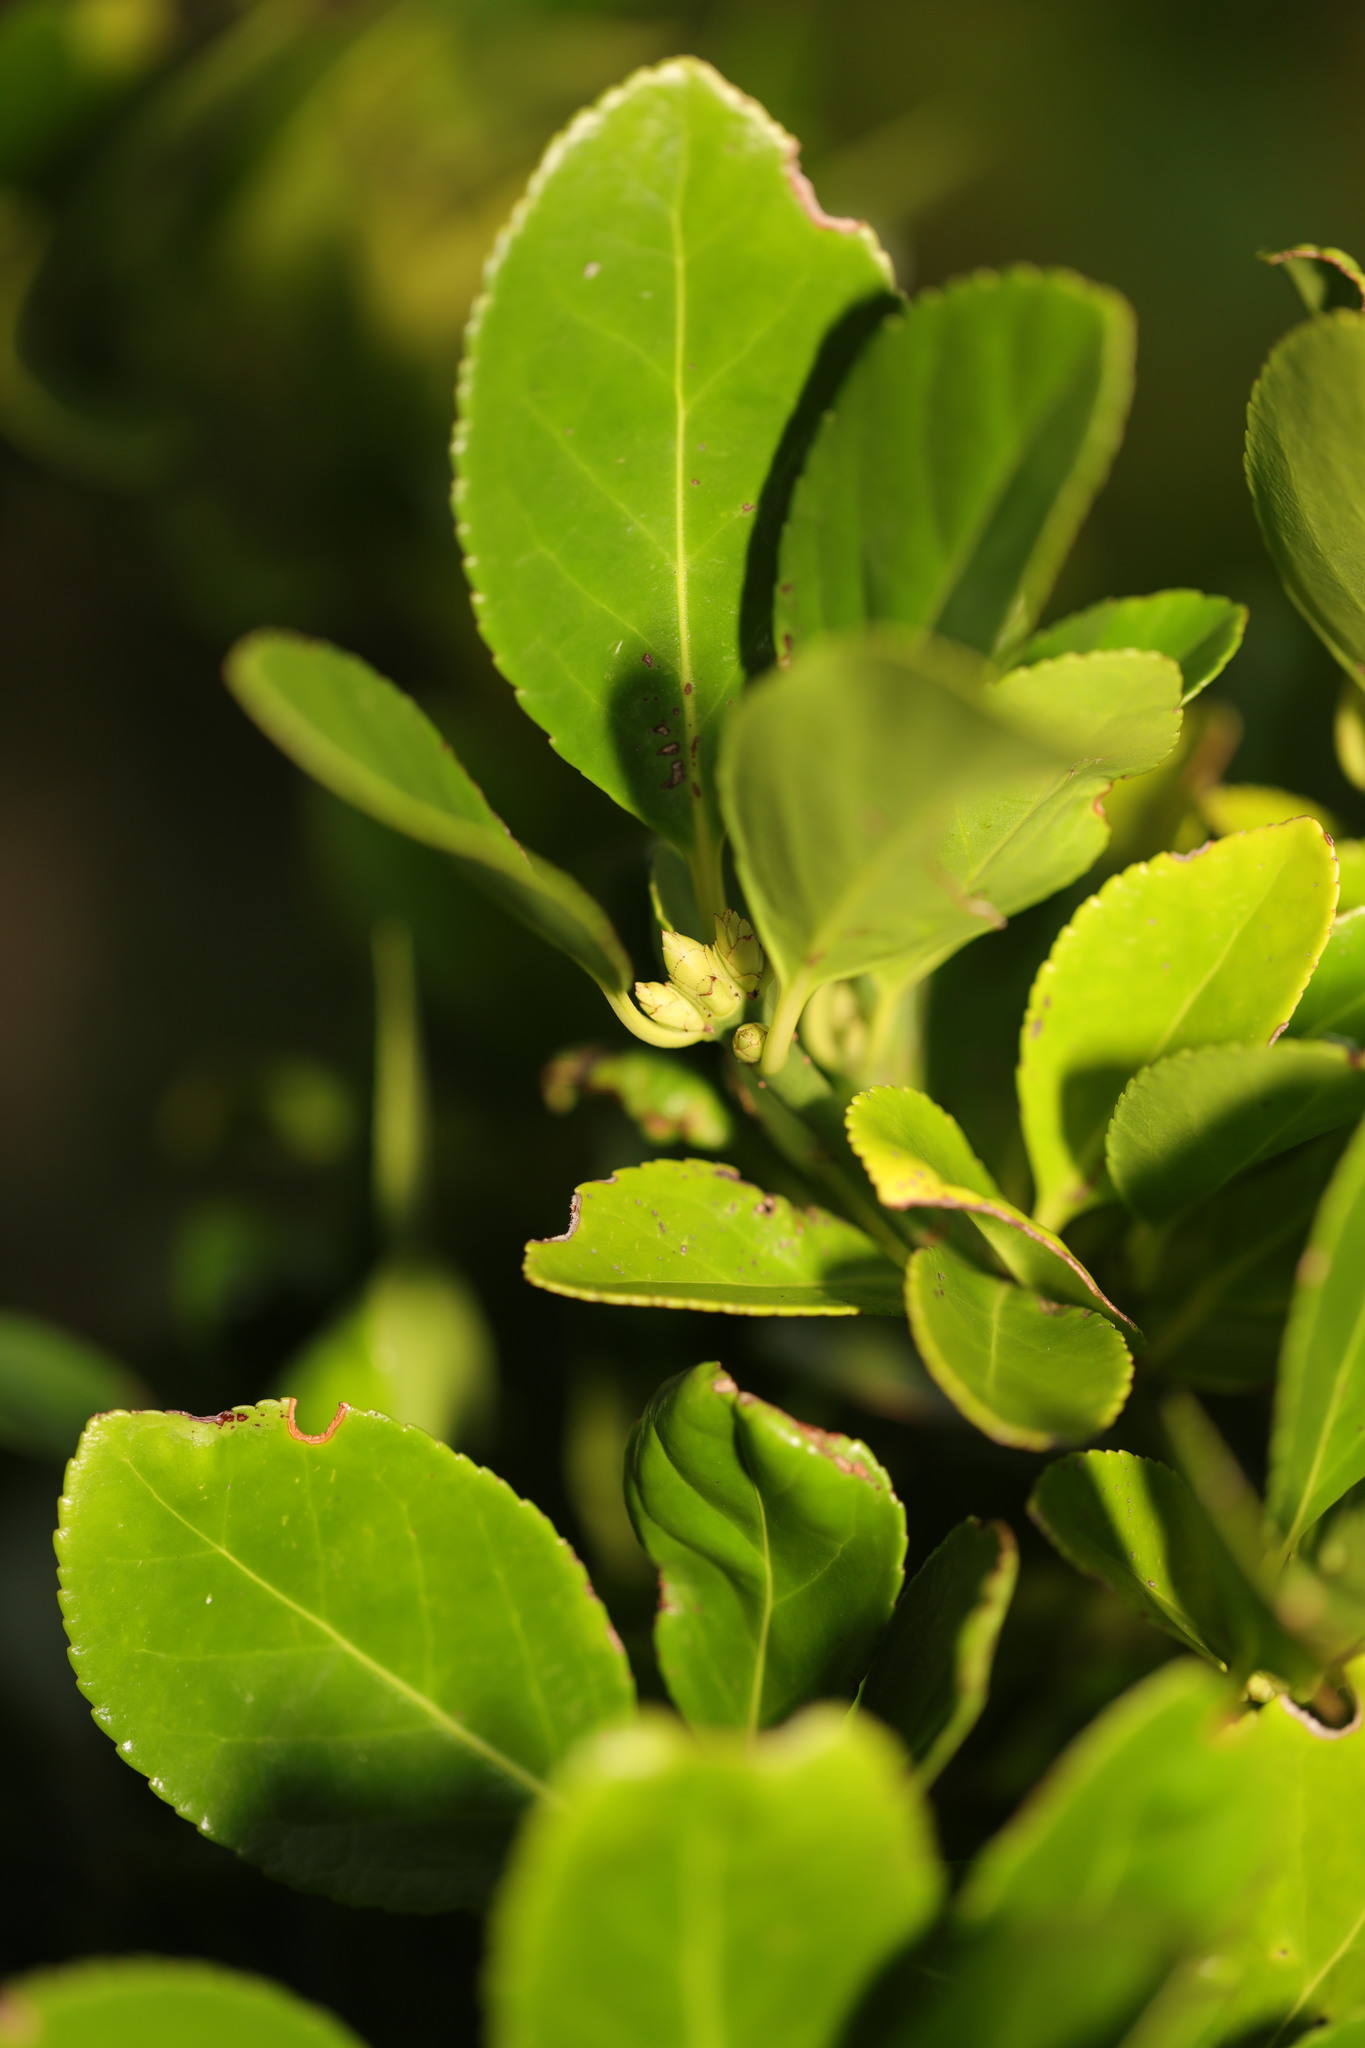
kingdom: Plantae
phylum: Tracheophyta
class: Magnoliopsida
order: Celastrales
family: Celastraceae
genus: Euonymus
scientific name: Euonymus japonicus
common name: Japanese spindletree
